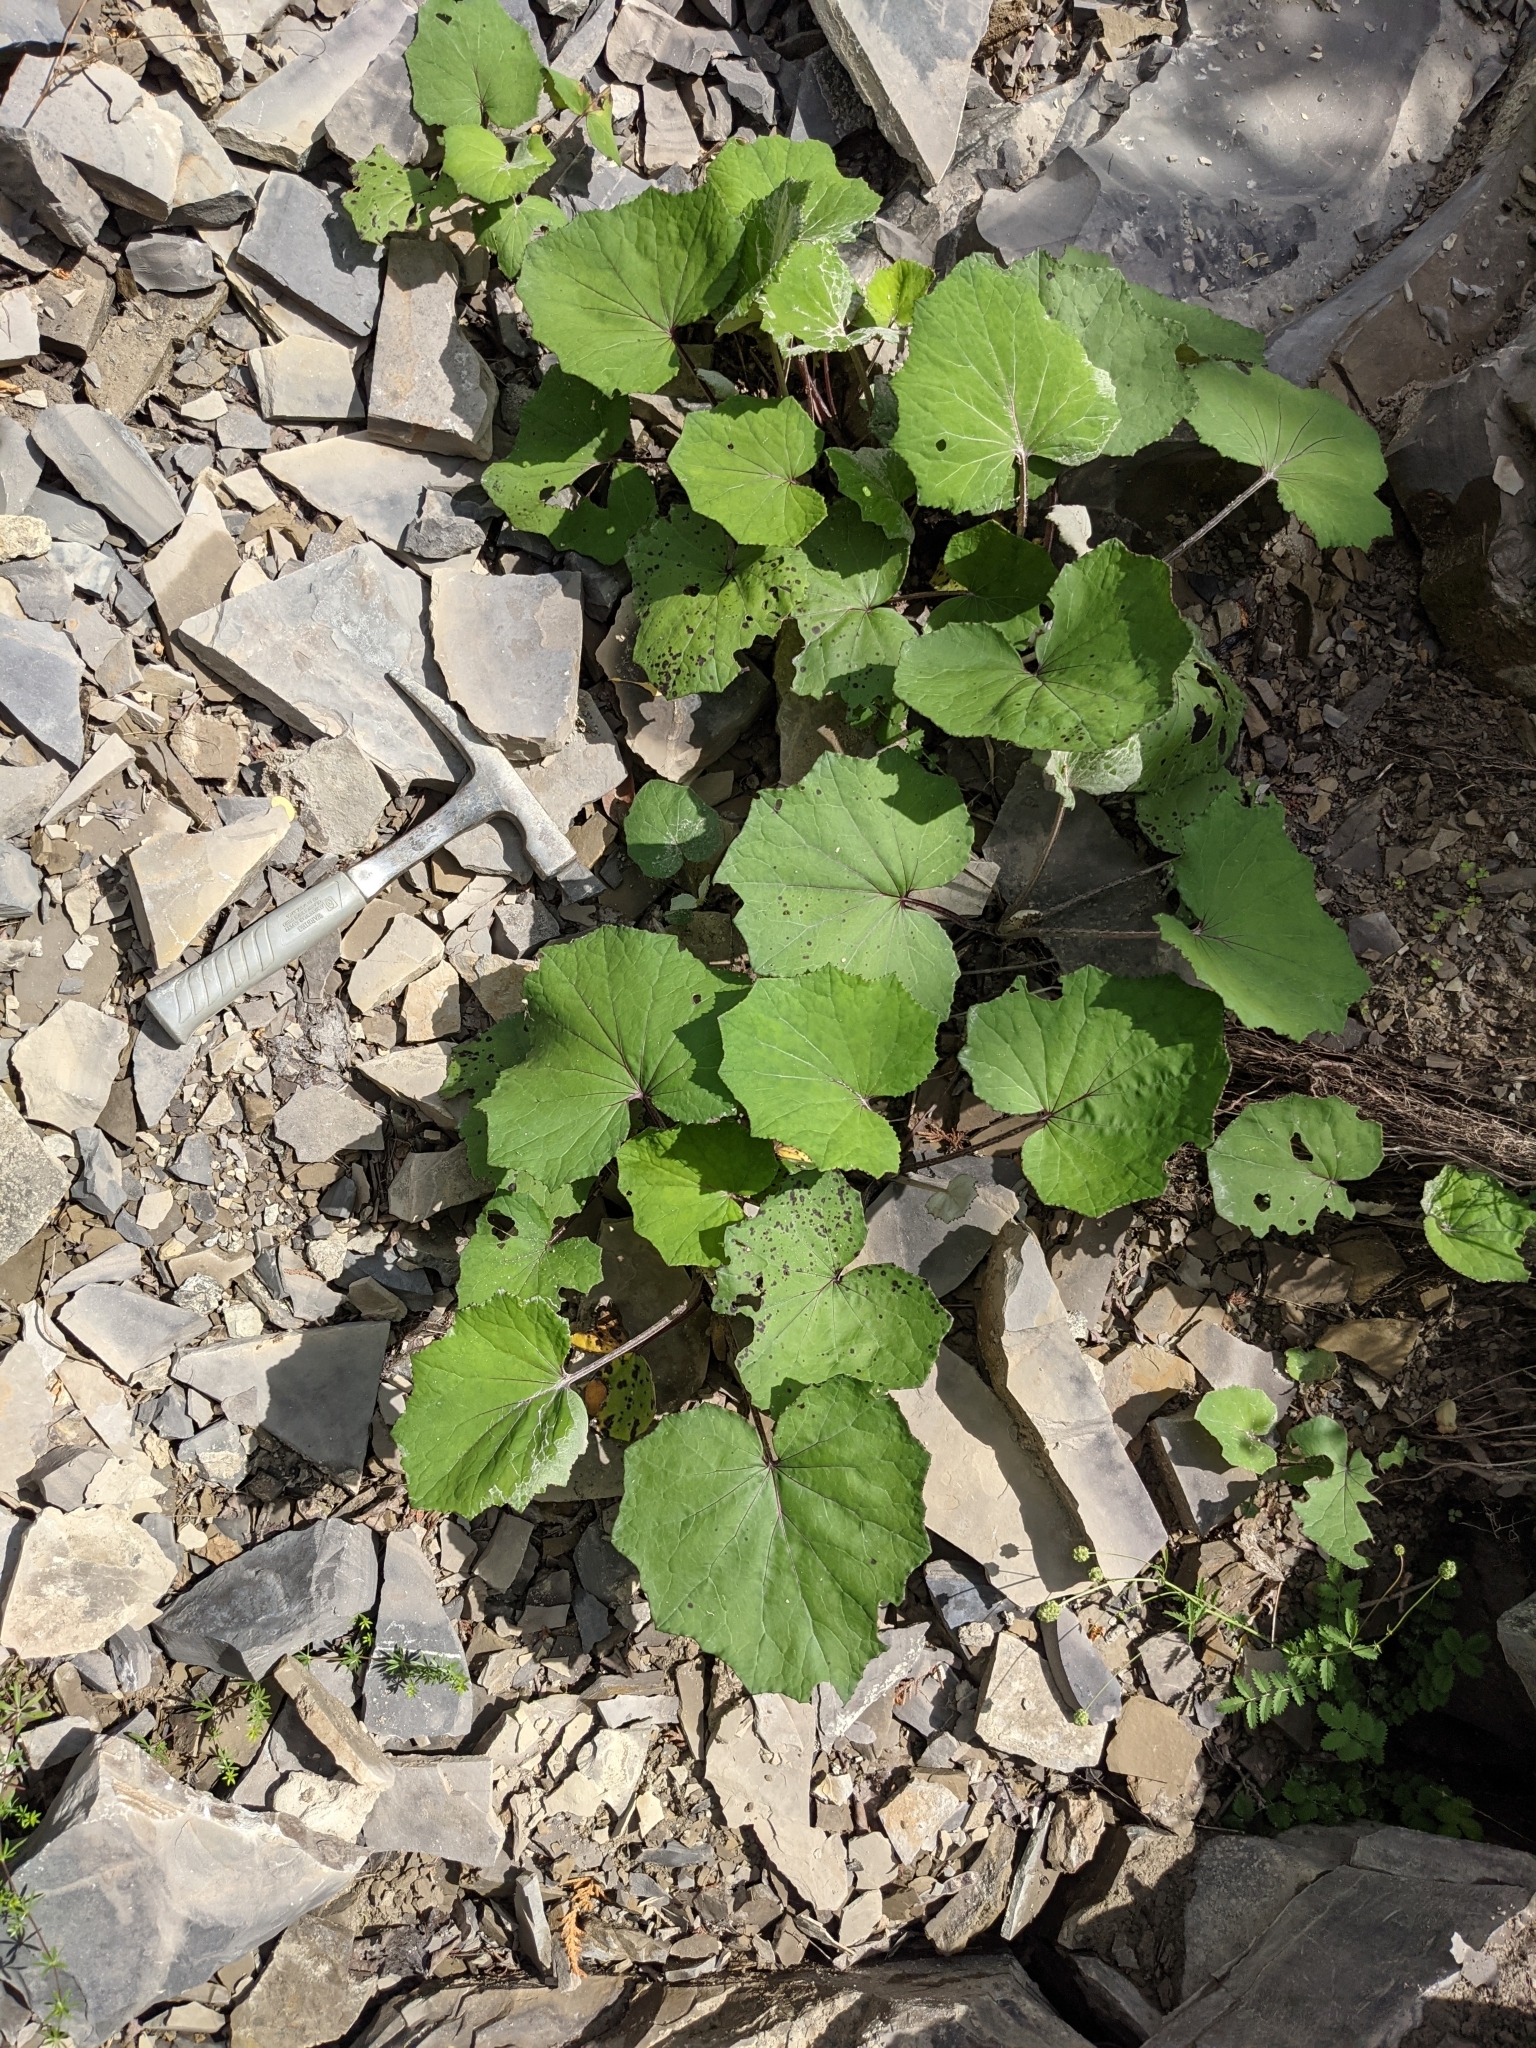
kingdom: Plantae
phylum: Tracheophyta
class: Magnoliopsida
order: Asterales
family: Asteraceae
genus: Tussilago
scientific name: Tussilago farfara
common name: Coltsfoot
